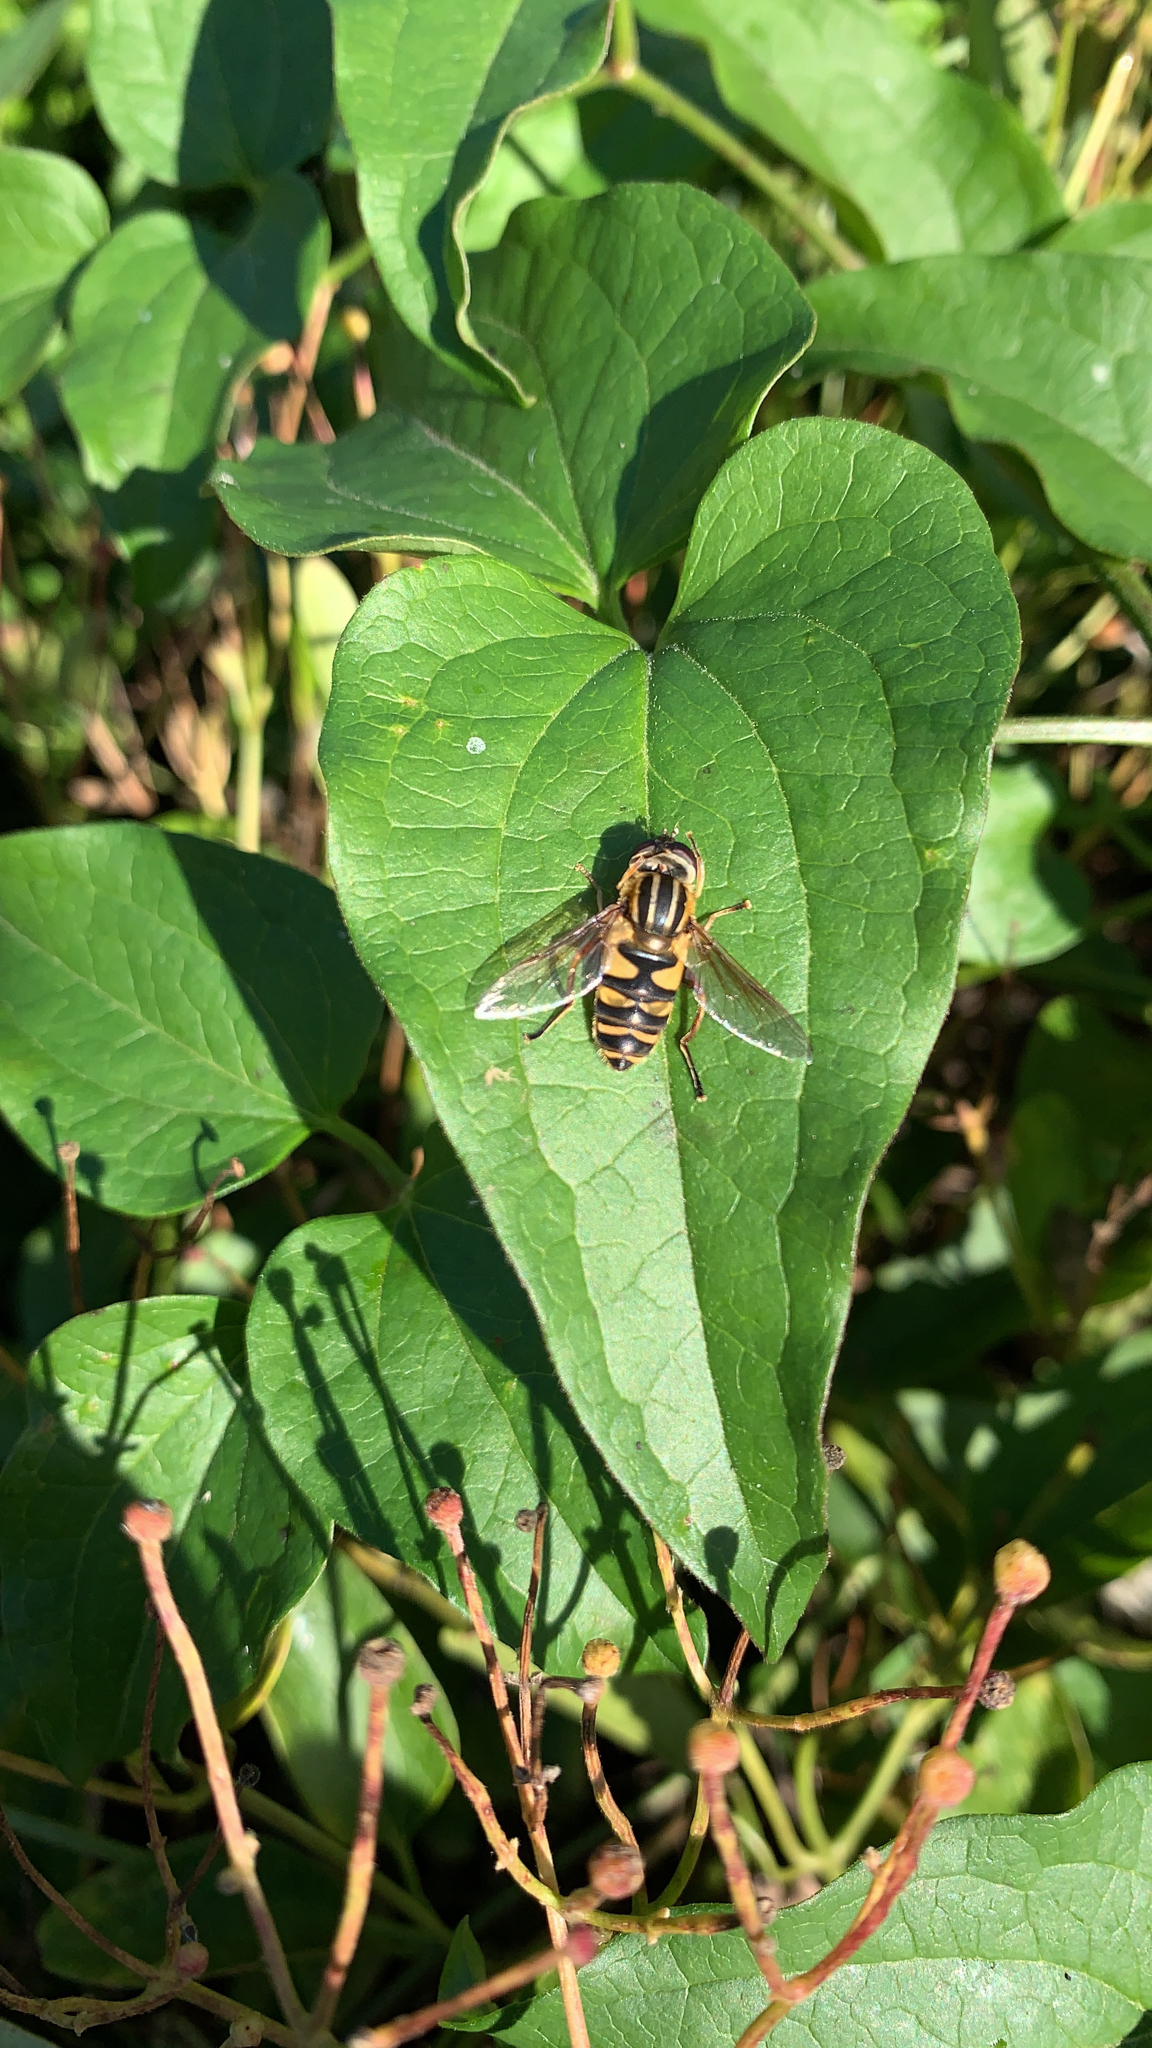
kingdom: Animalia
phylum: Arthropoda
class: Insecta
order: Diptera
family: Syrphidae
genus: Helophilus
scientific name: Helophilus fasciatus
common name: Narrow-headed marsh fly
